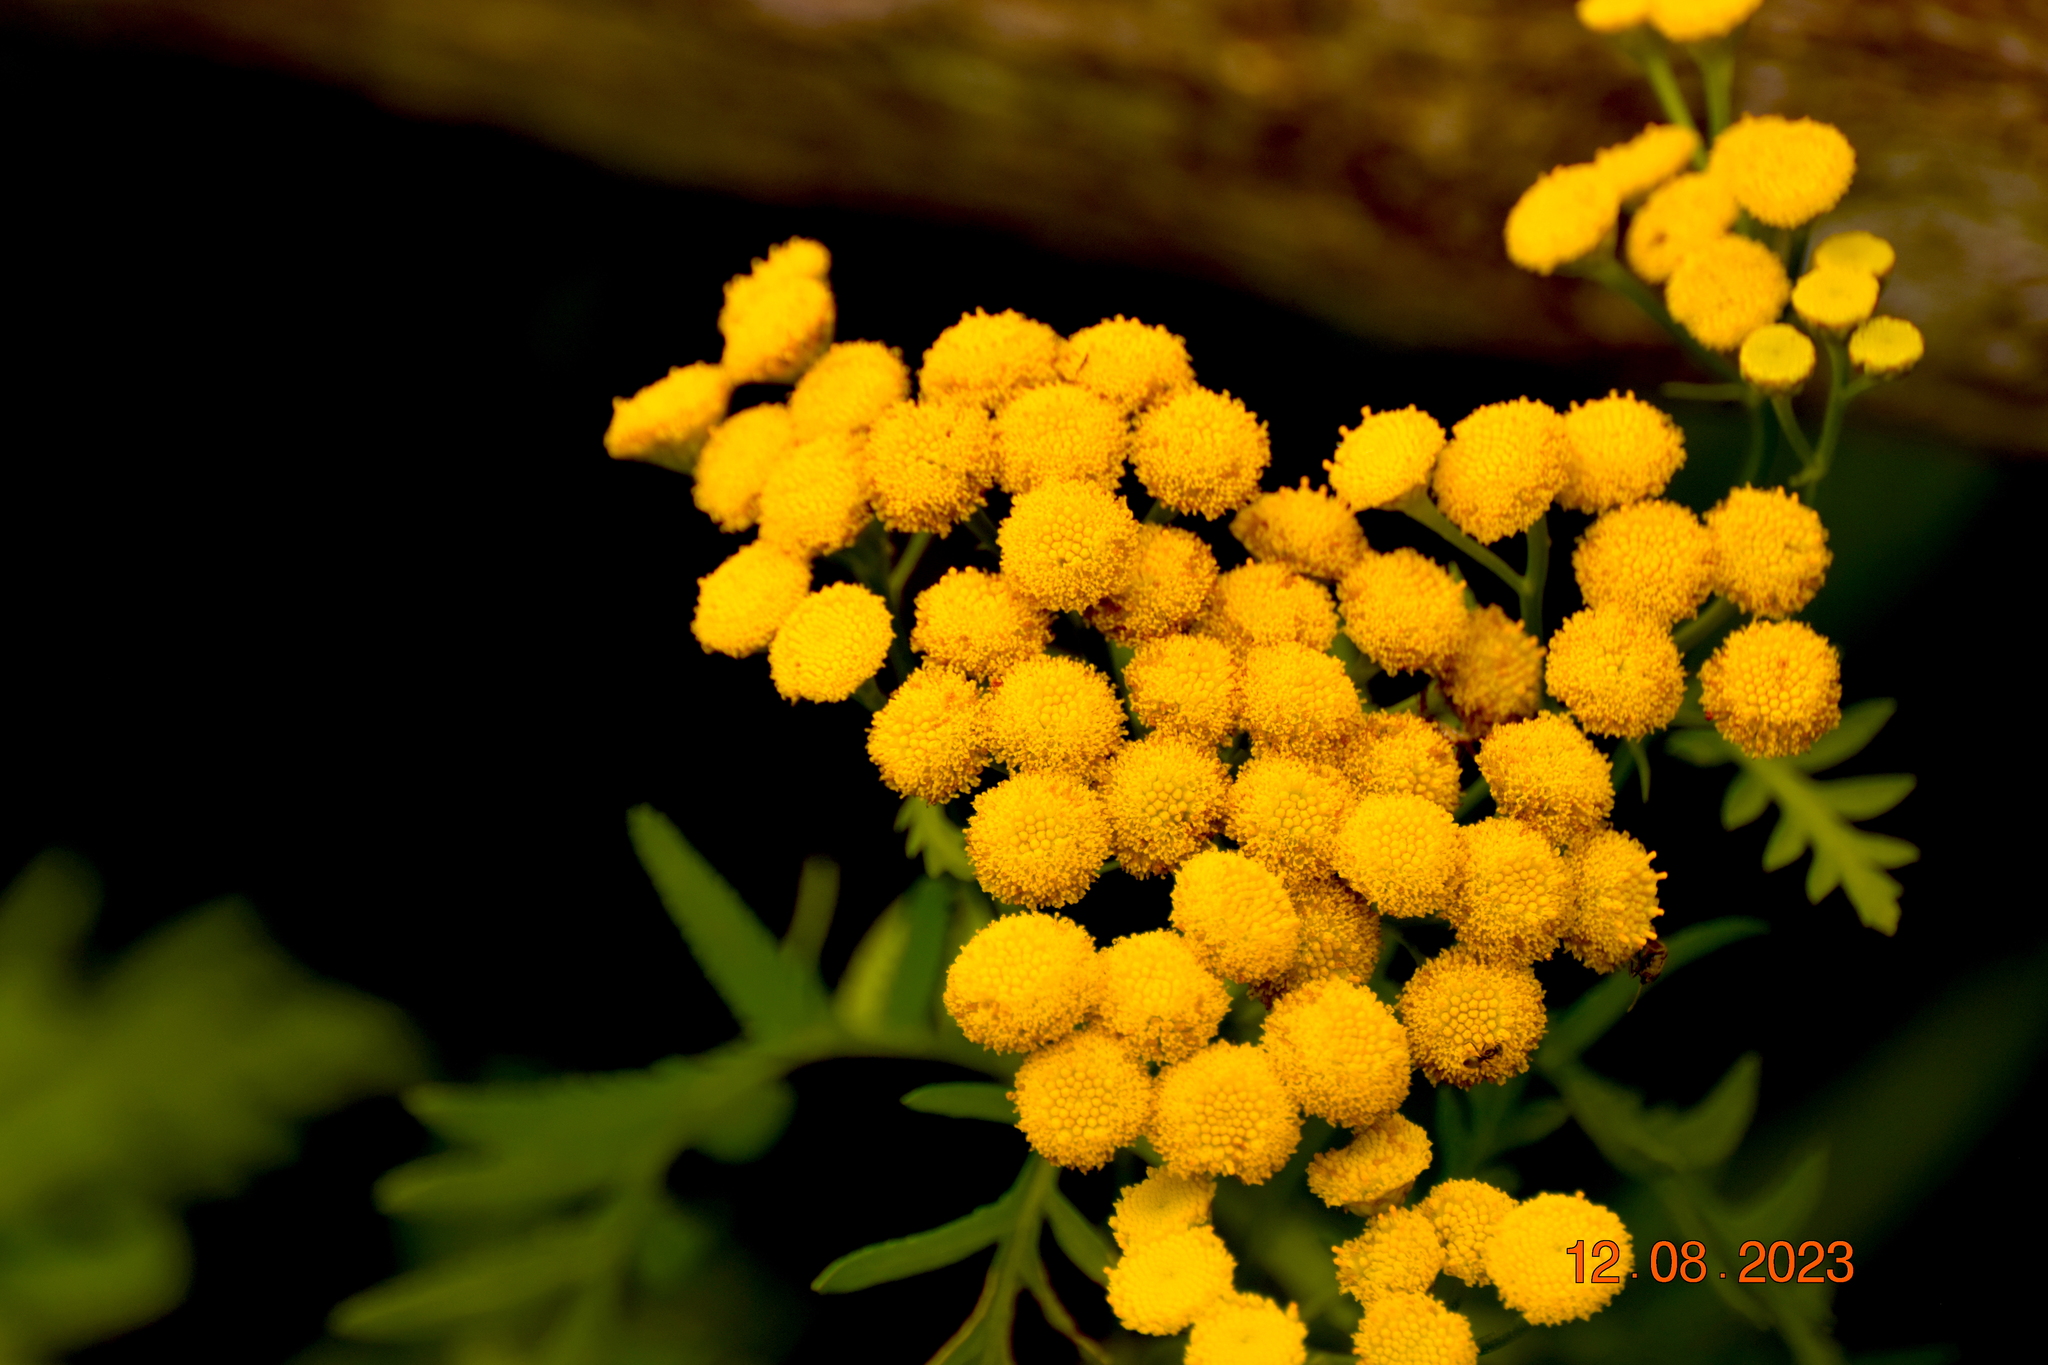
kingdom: Plantae
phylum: Tracheophyta
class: Magnoliopsida
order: Asterales
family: Asteraceae
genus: Tanacetum
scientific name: Tanacetum vulgare
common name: Common tansy
